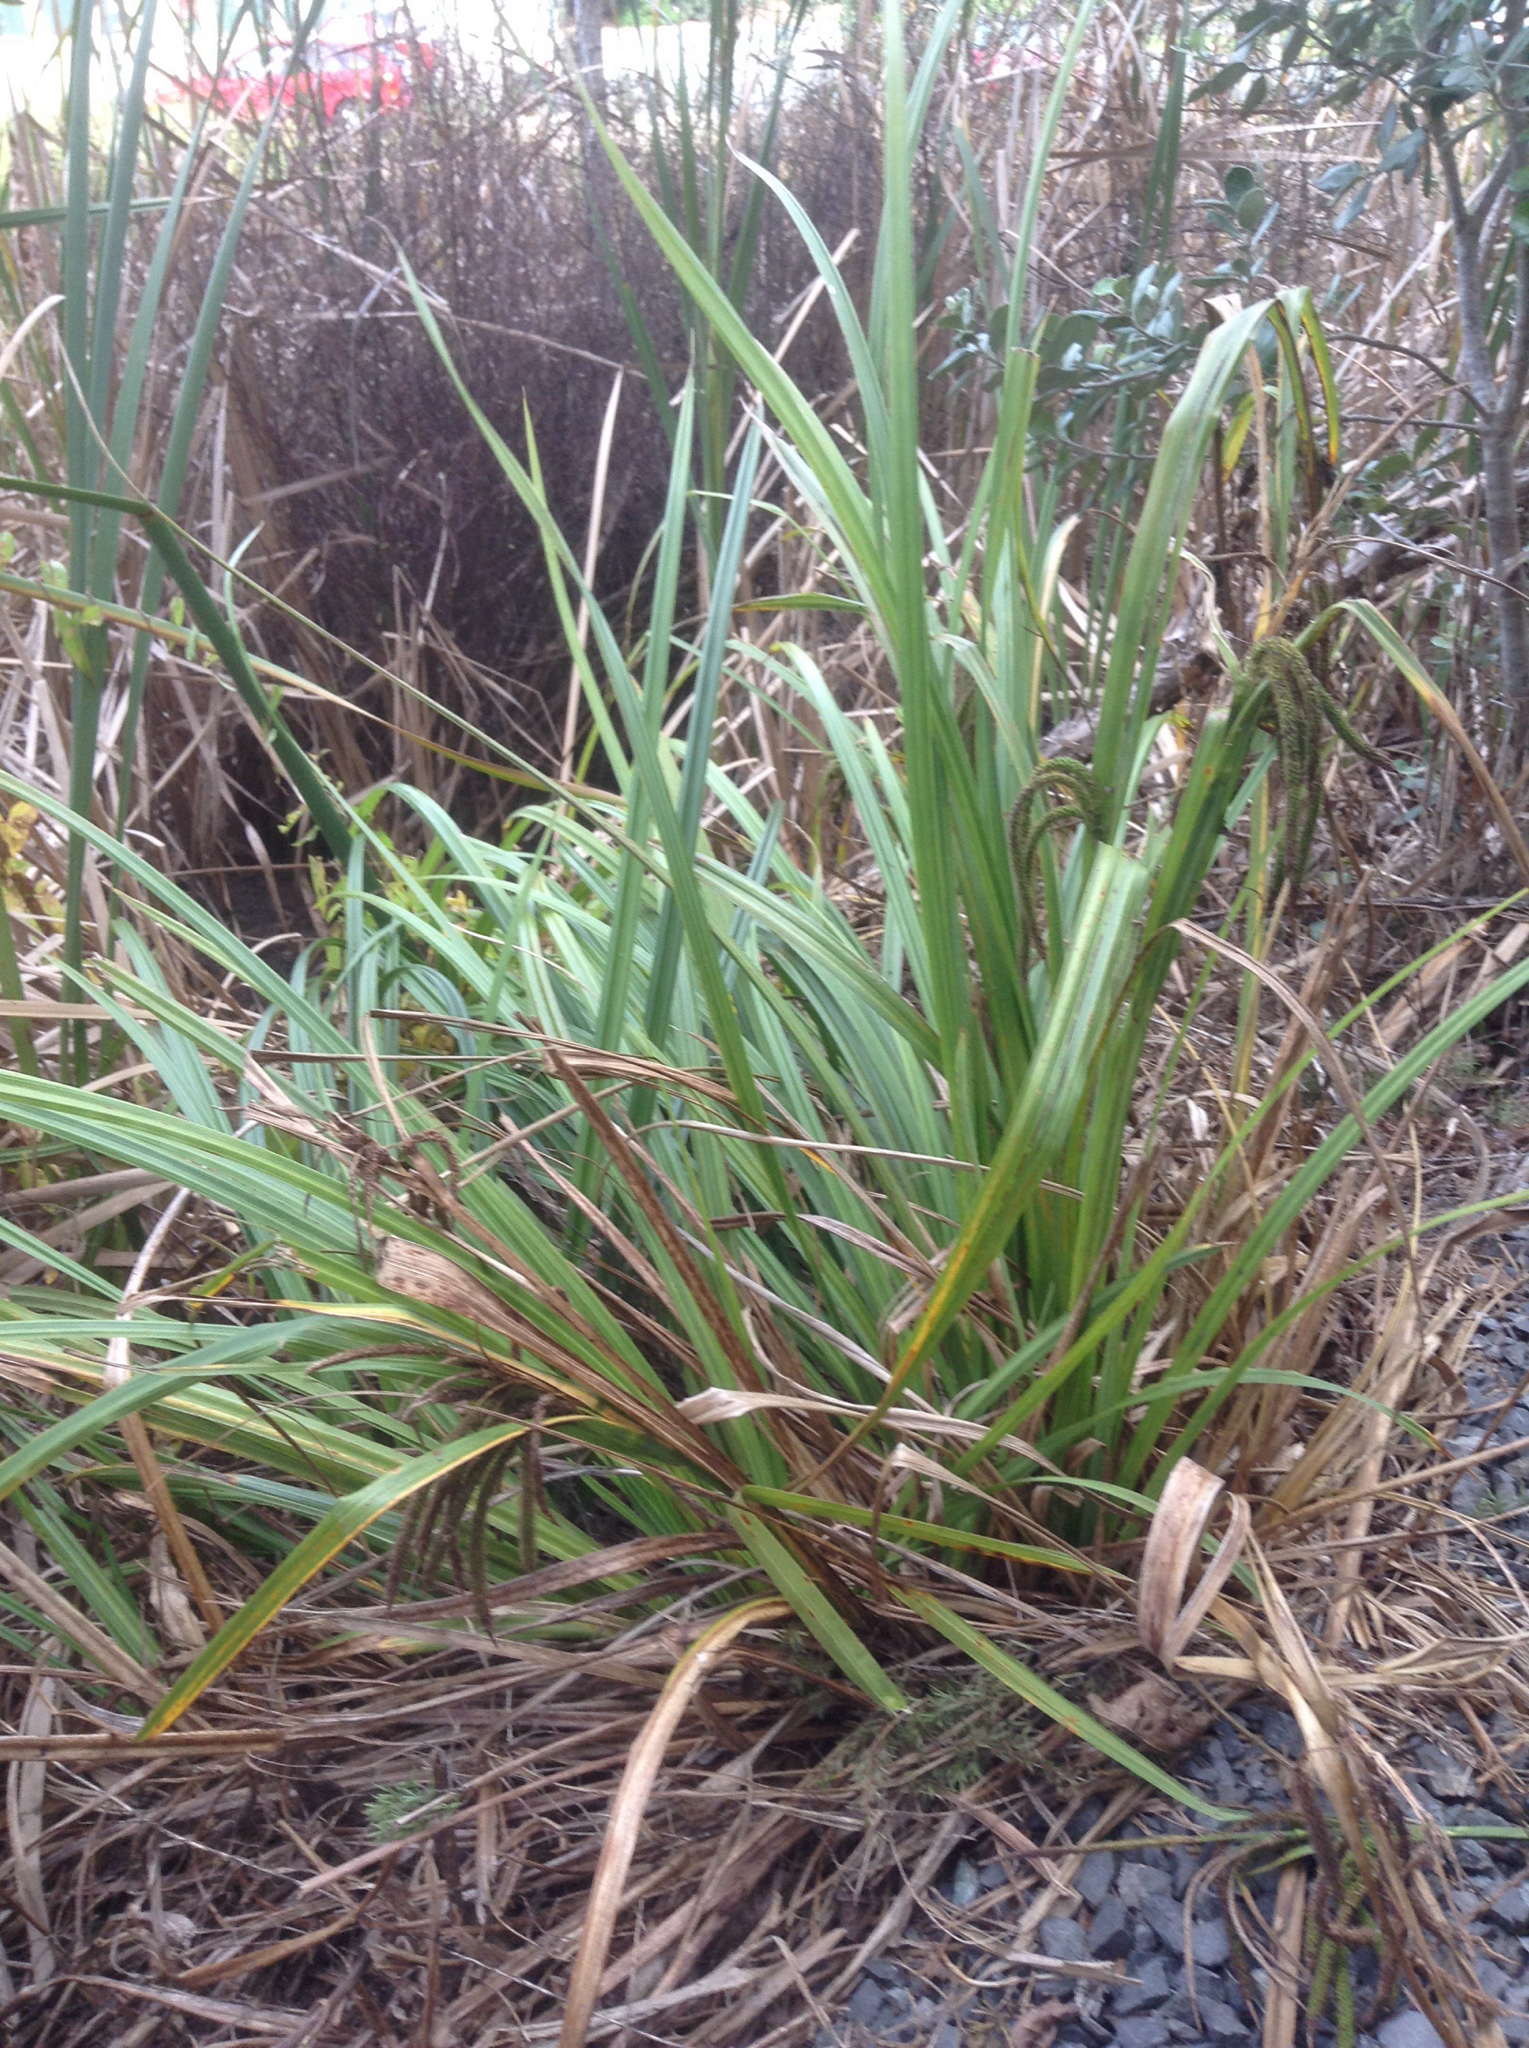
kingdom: Plantae
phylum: Tracheophyta
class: Liliopsida
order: Poales
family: Cyperaceae
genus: Carex
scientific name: Carex geminata
